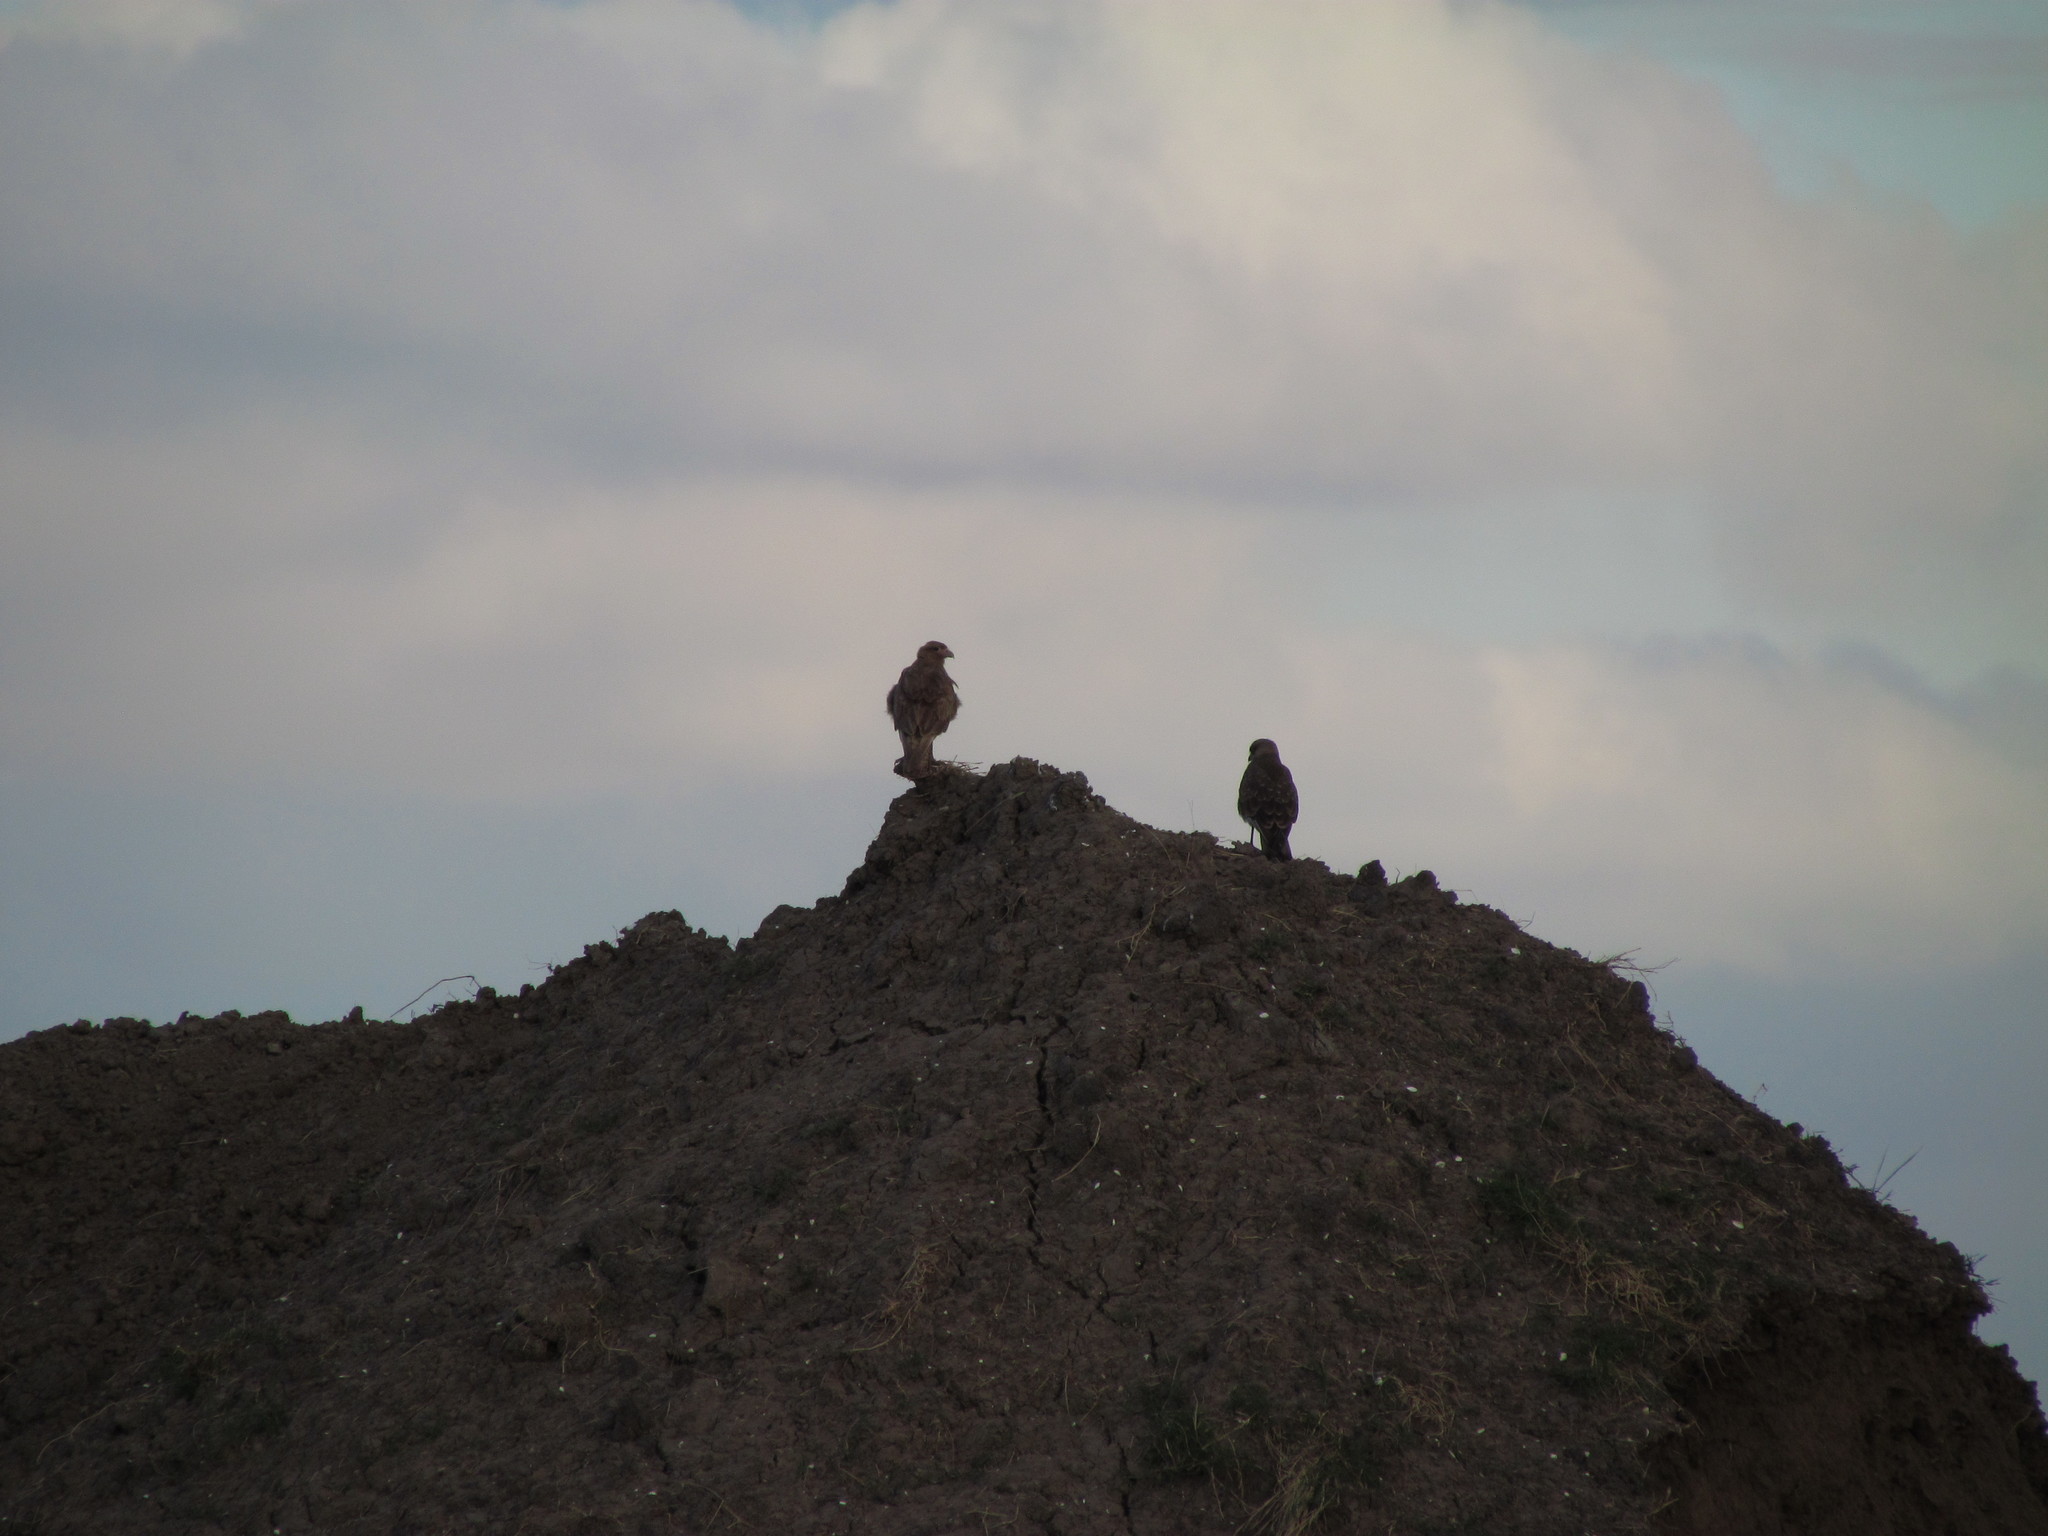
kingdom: Animalia
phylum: Chordata
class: Aves
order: Falconiformes
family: Falconidae
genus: Daptrius
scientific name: Daptrius
